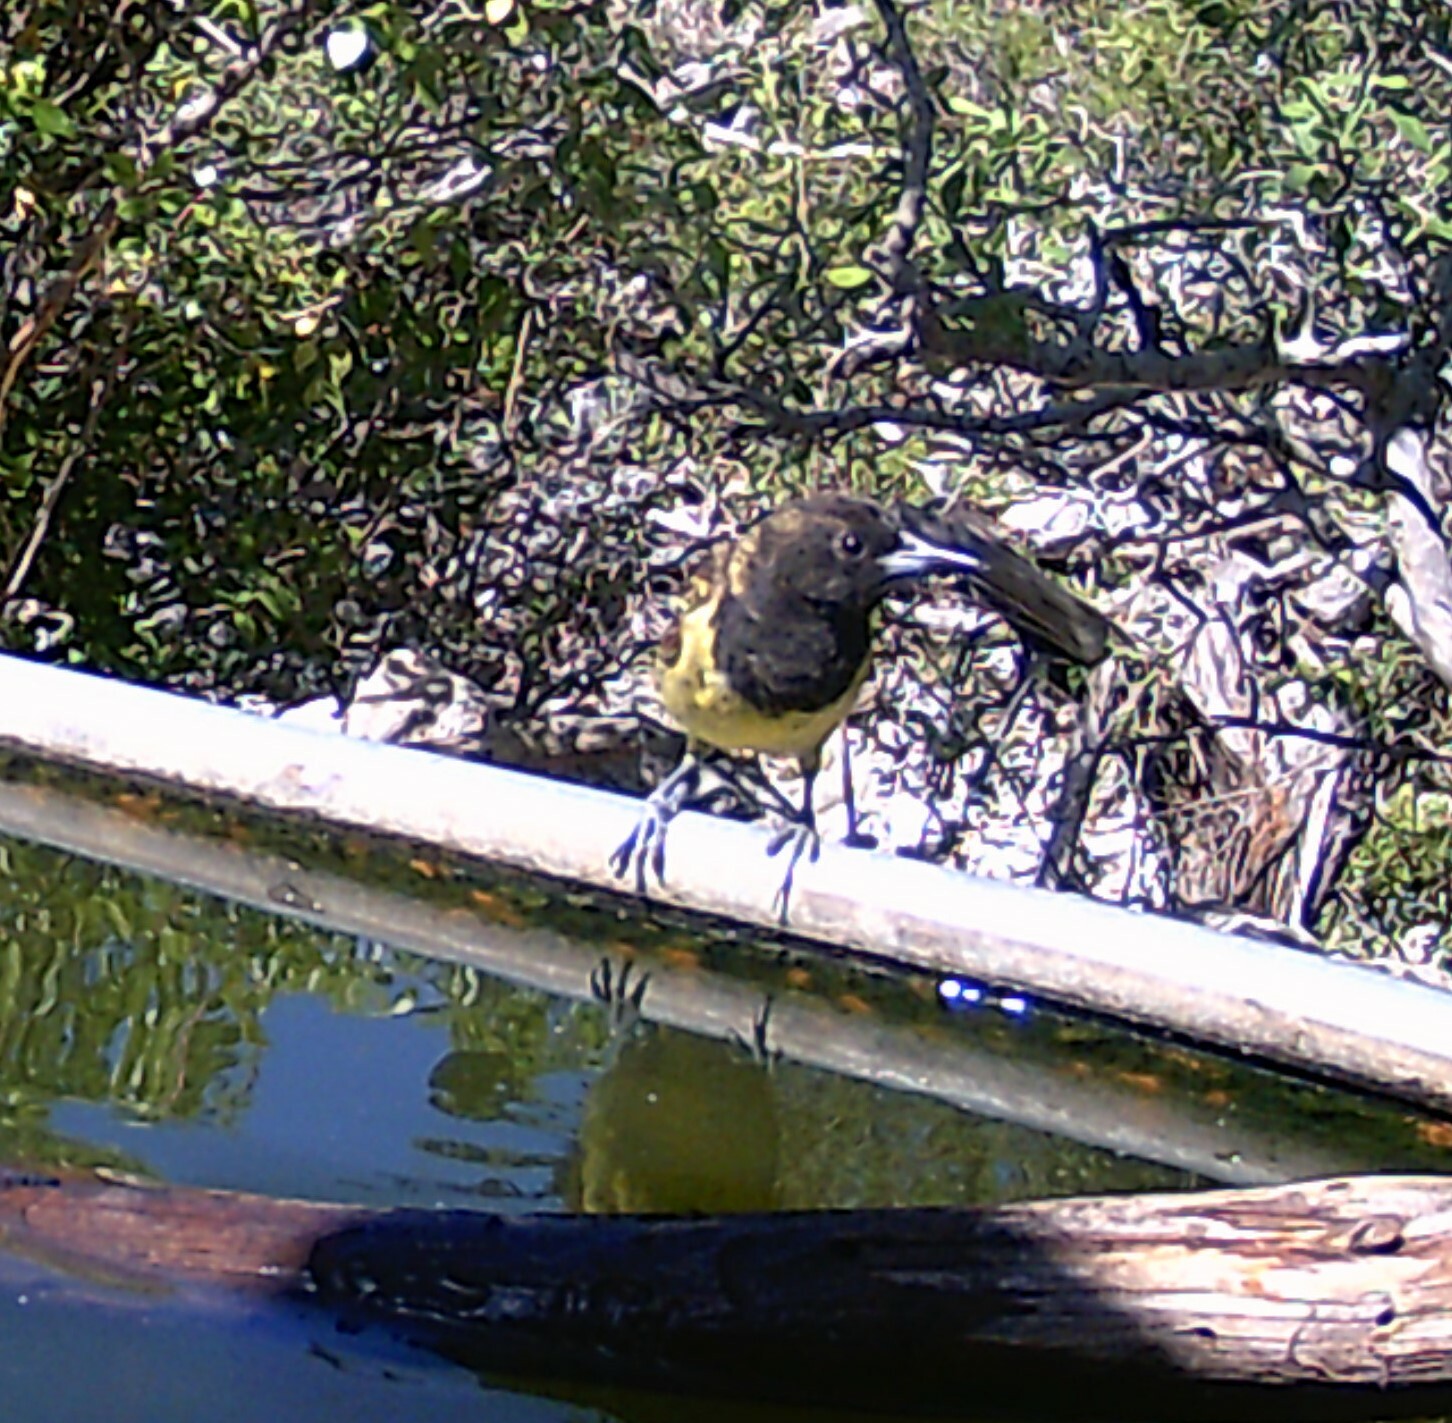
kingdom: Animalia
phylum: Chordata
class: Aves
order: Passeriformes
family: Icteridae
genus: Icterus
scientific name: Icterus parisorum
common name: Scott's oriole
